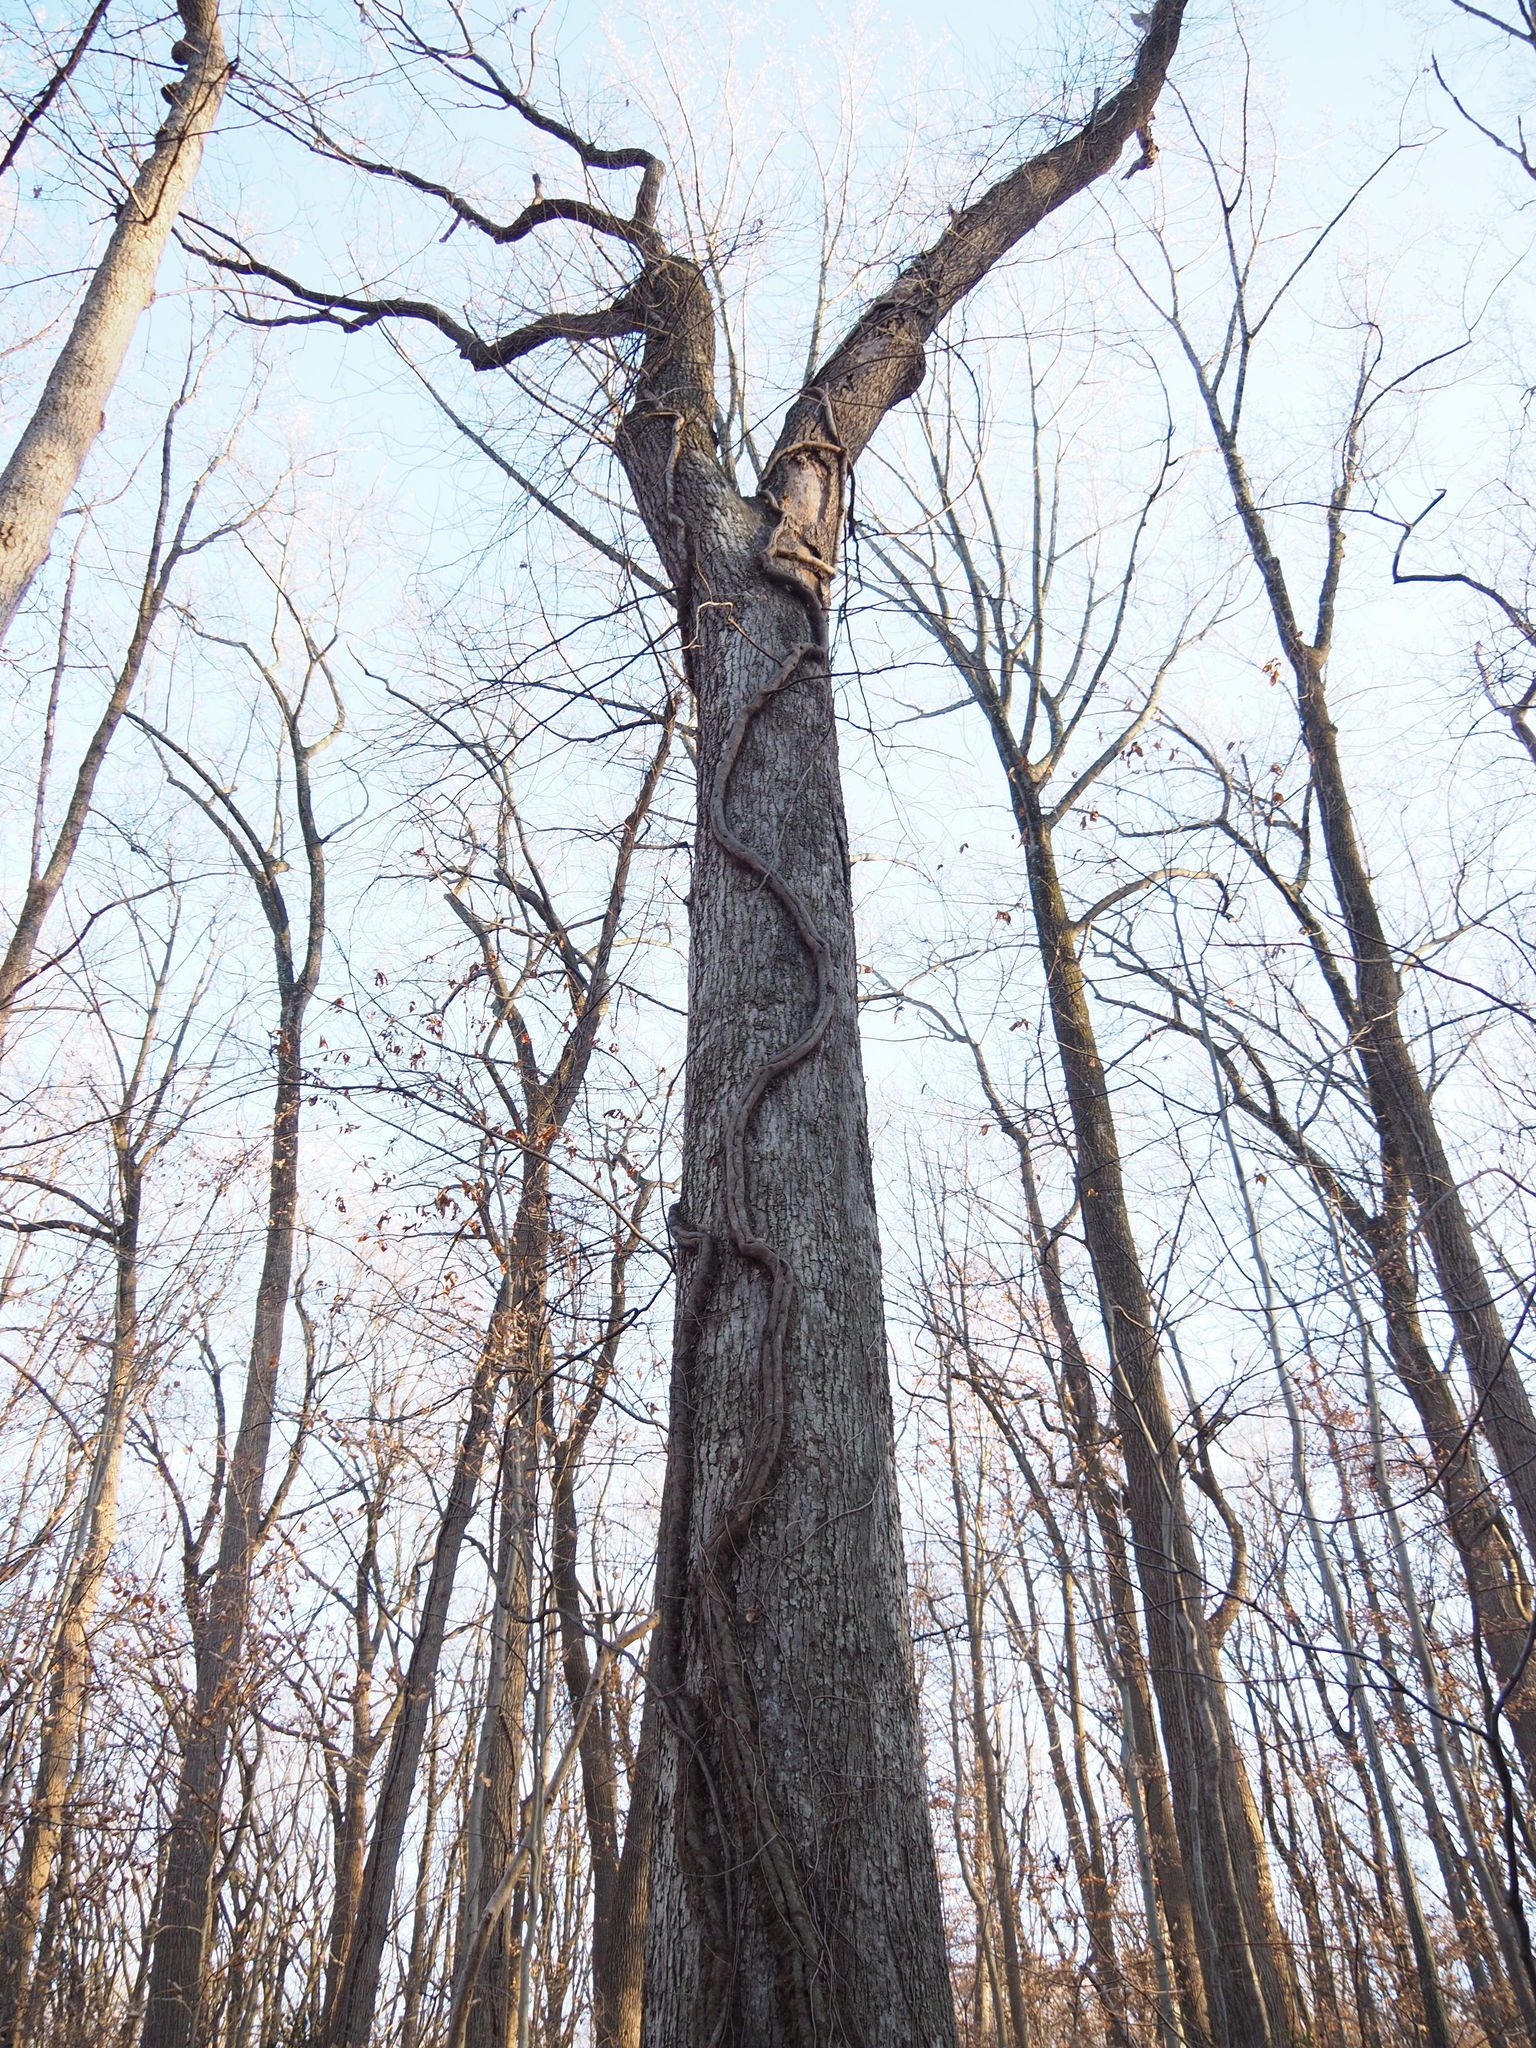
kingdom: Plantae
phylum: Tracheophyta
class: Magnoliopsida
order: Sapindales
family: Anacardiaceae
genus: Toxicodendron
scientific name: Toxicodendron radicans
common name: Poison ivy
